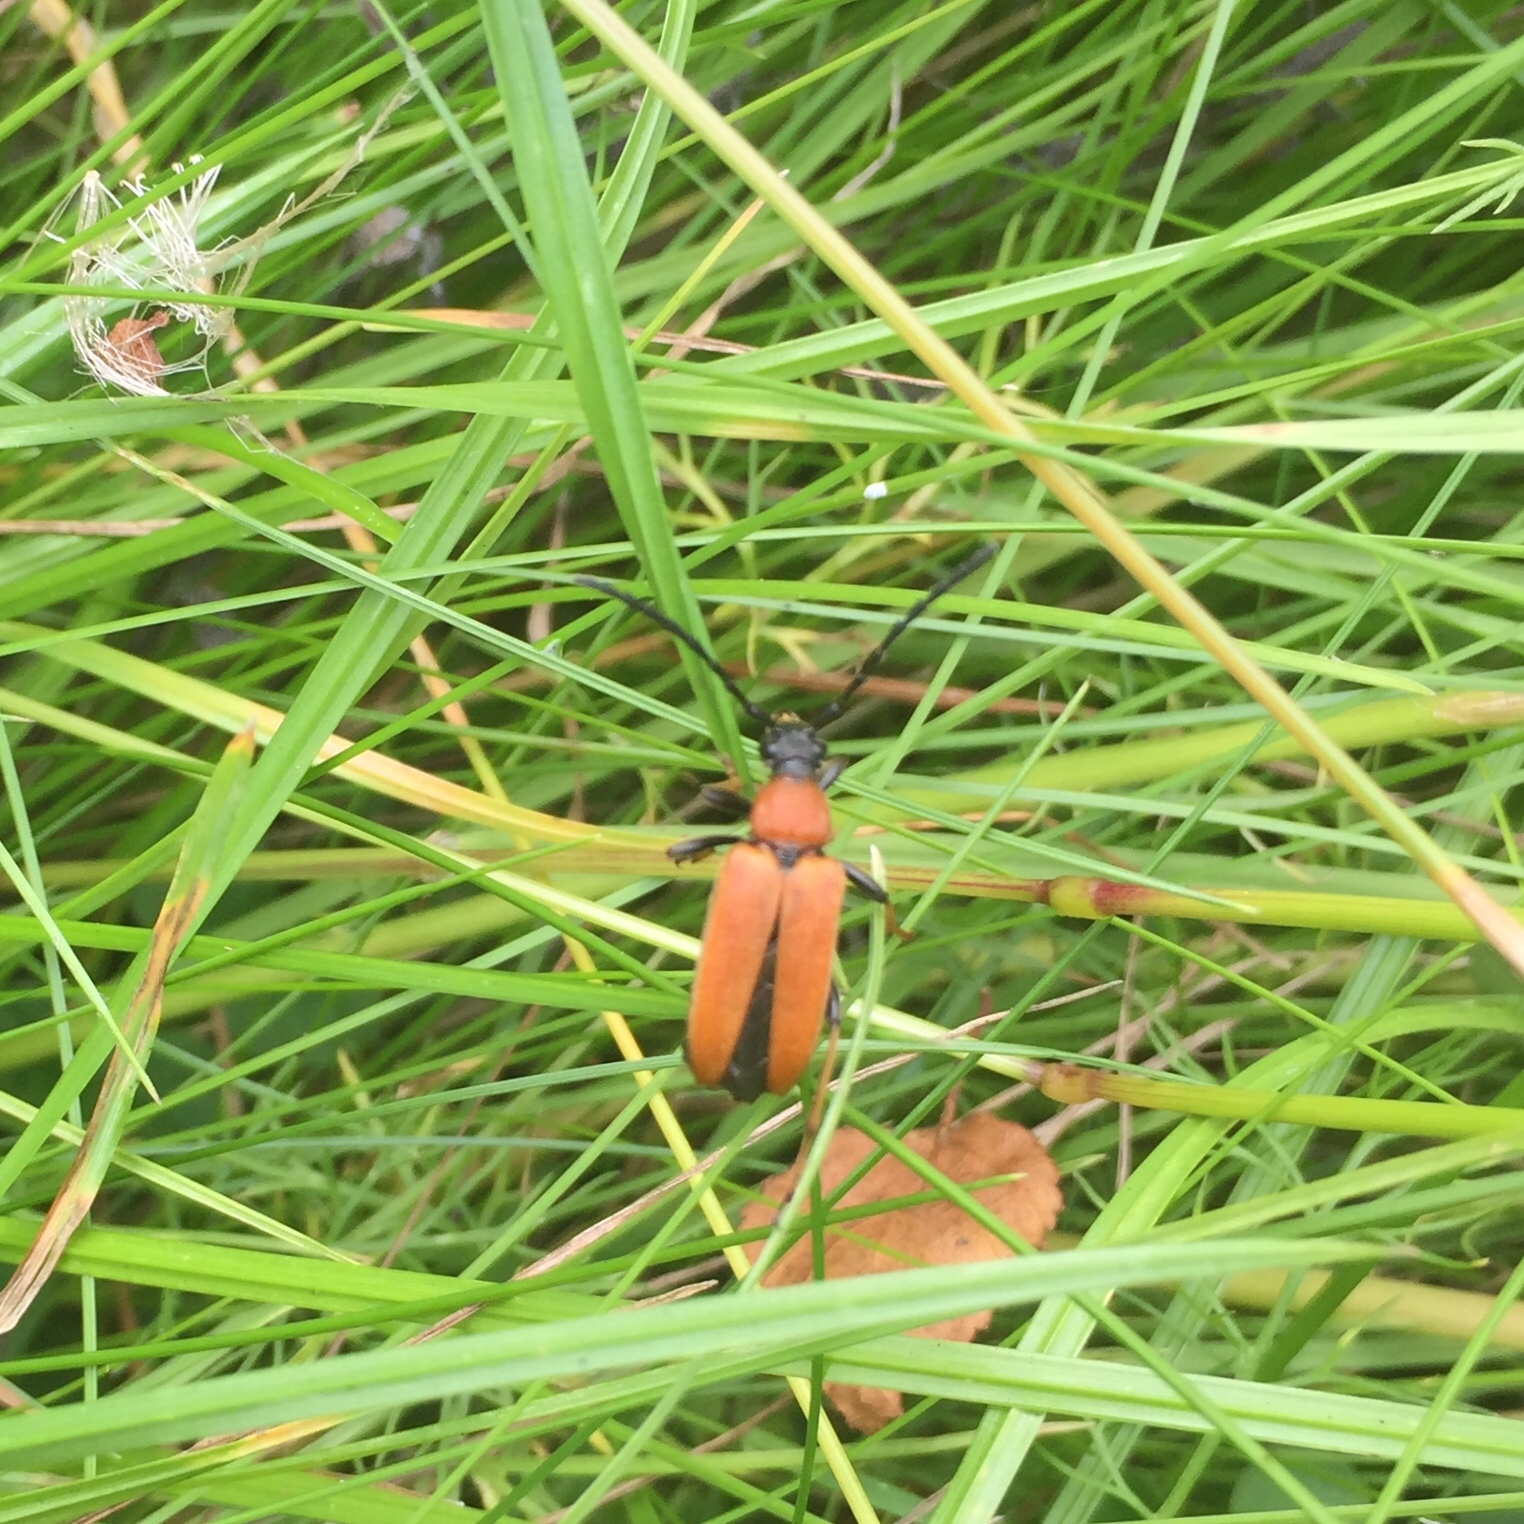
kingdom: Animalia
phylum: Arthropoda
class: Insecta
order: Coleoptera
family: Cerambycidae
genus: Stictoleptura
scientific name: Stictoleptura rubra
